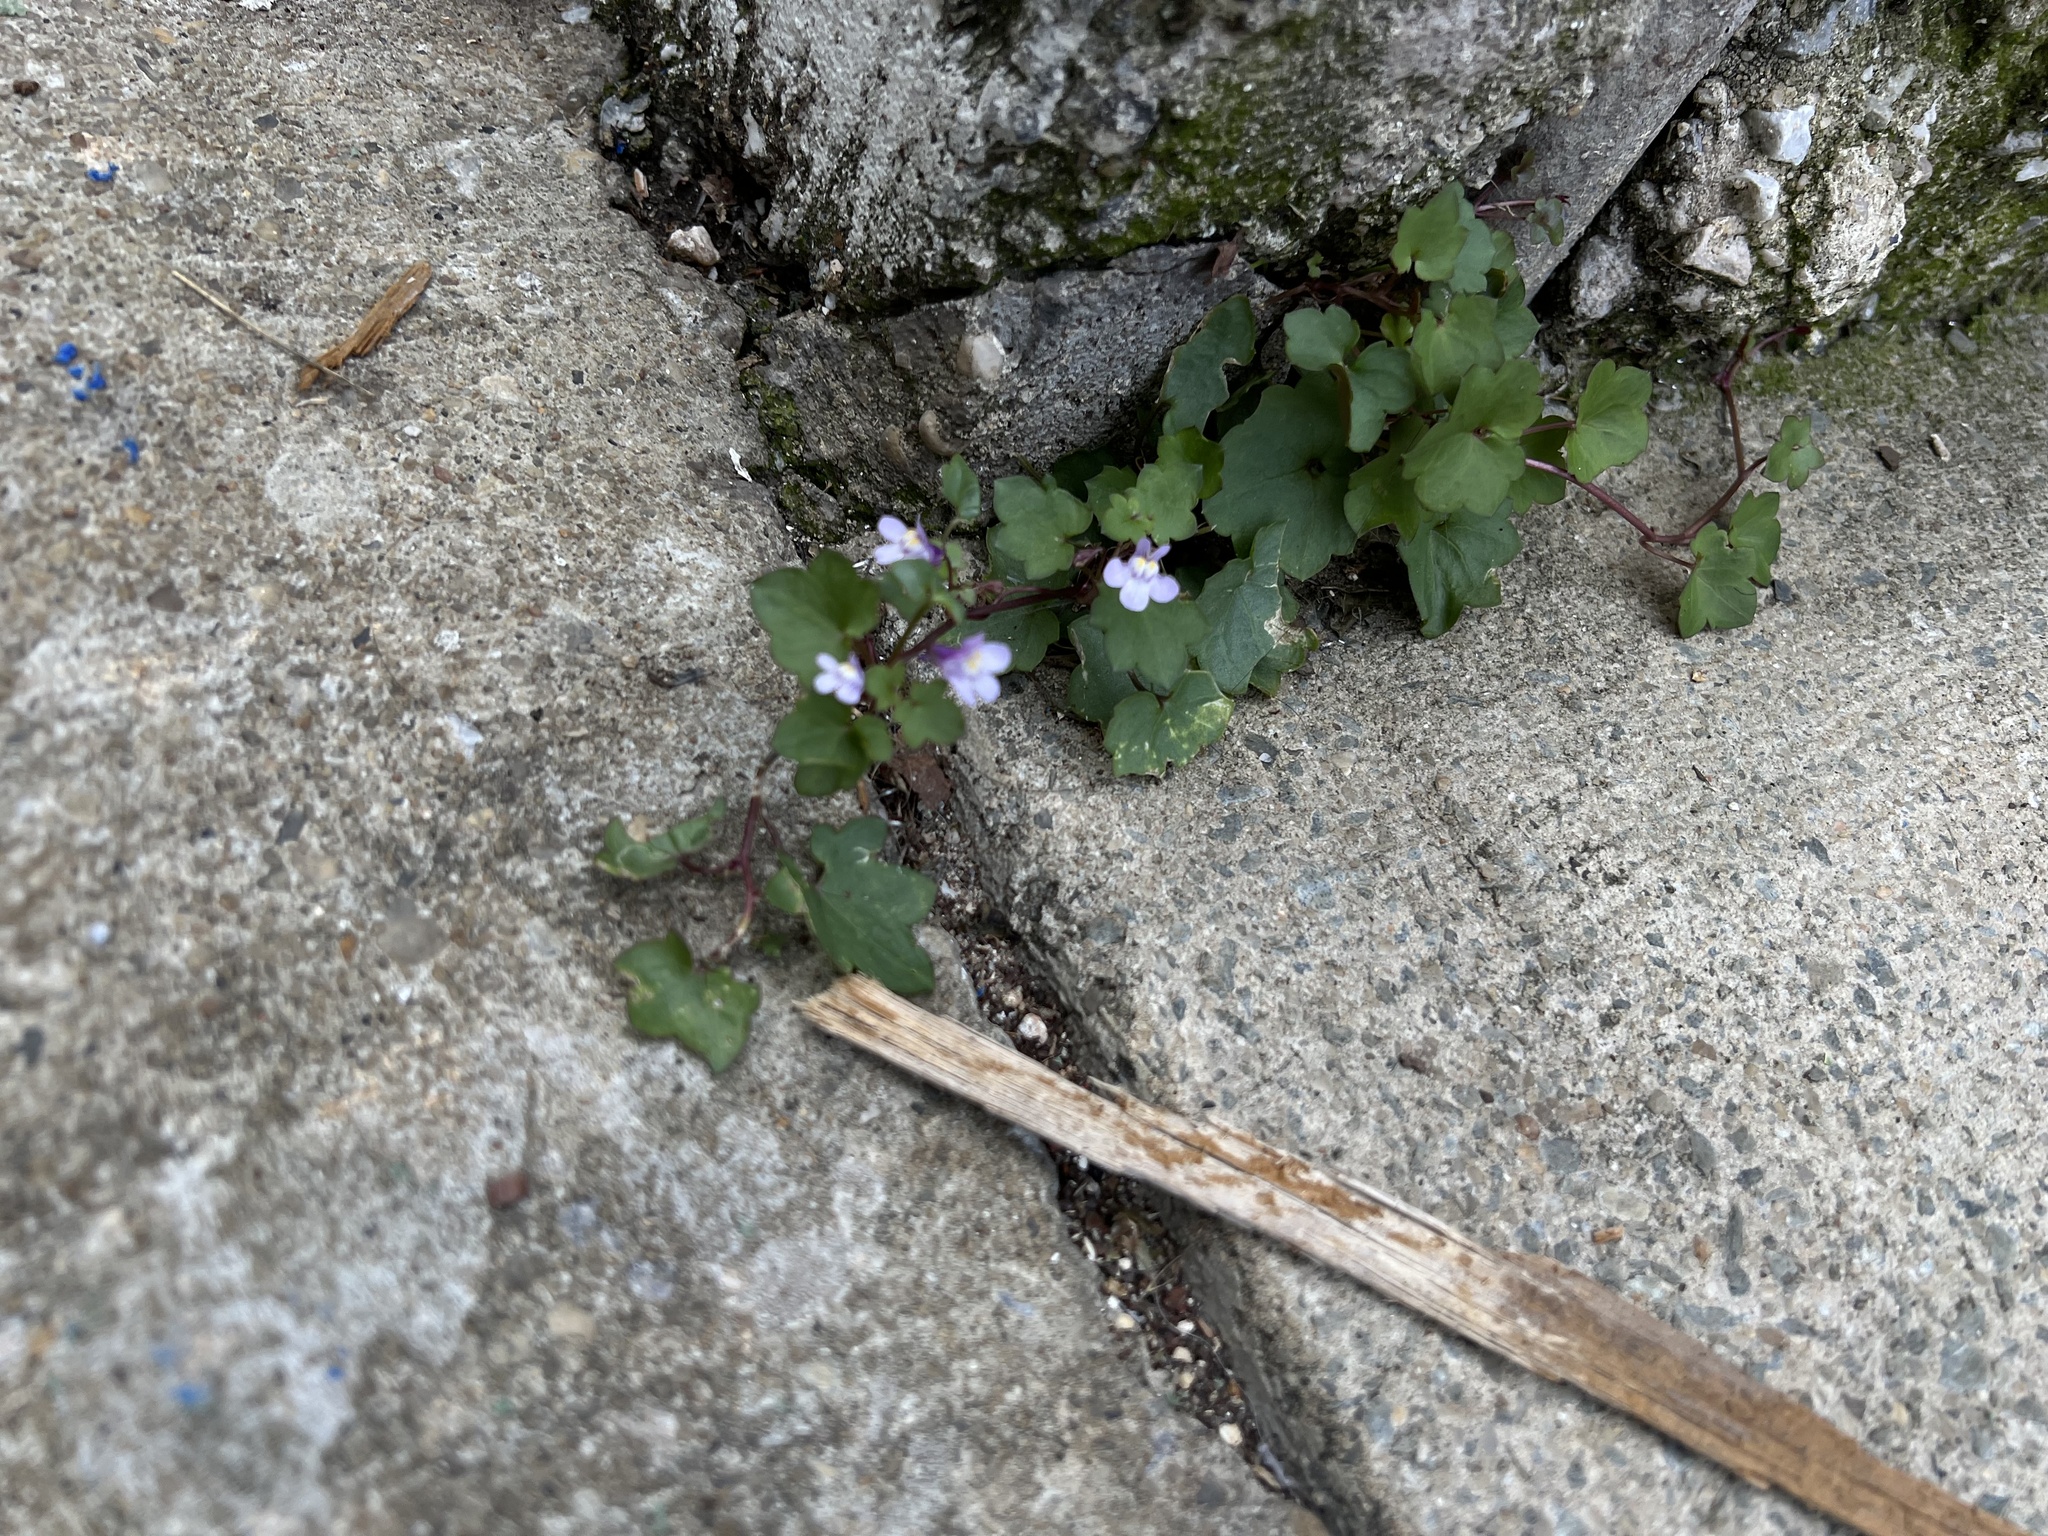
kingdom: Plantae
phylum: Tracheophyta
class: Magnoliopsida
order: Lamiales
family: Plantaginaceae
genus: Cymbalaria
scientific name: Cymbalaria muralis
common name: Ivy-leaved toadflax
